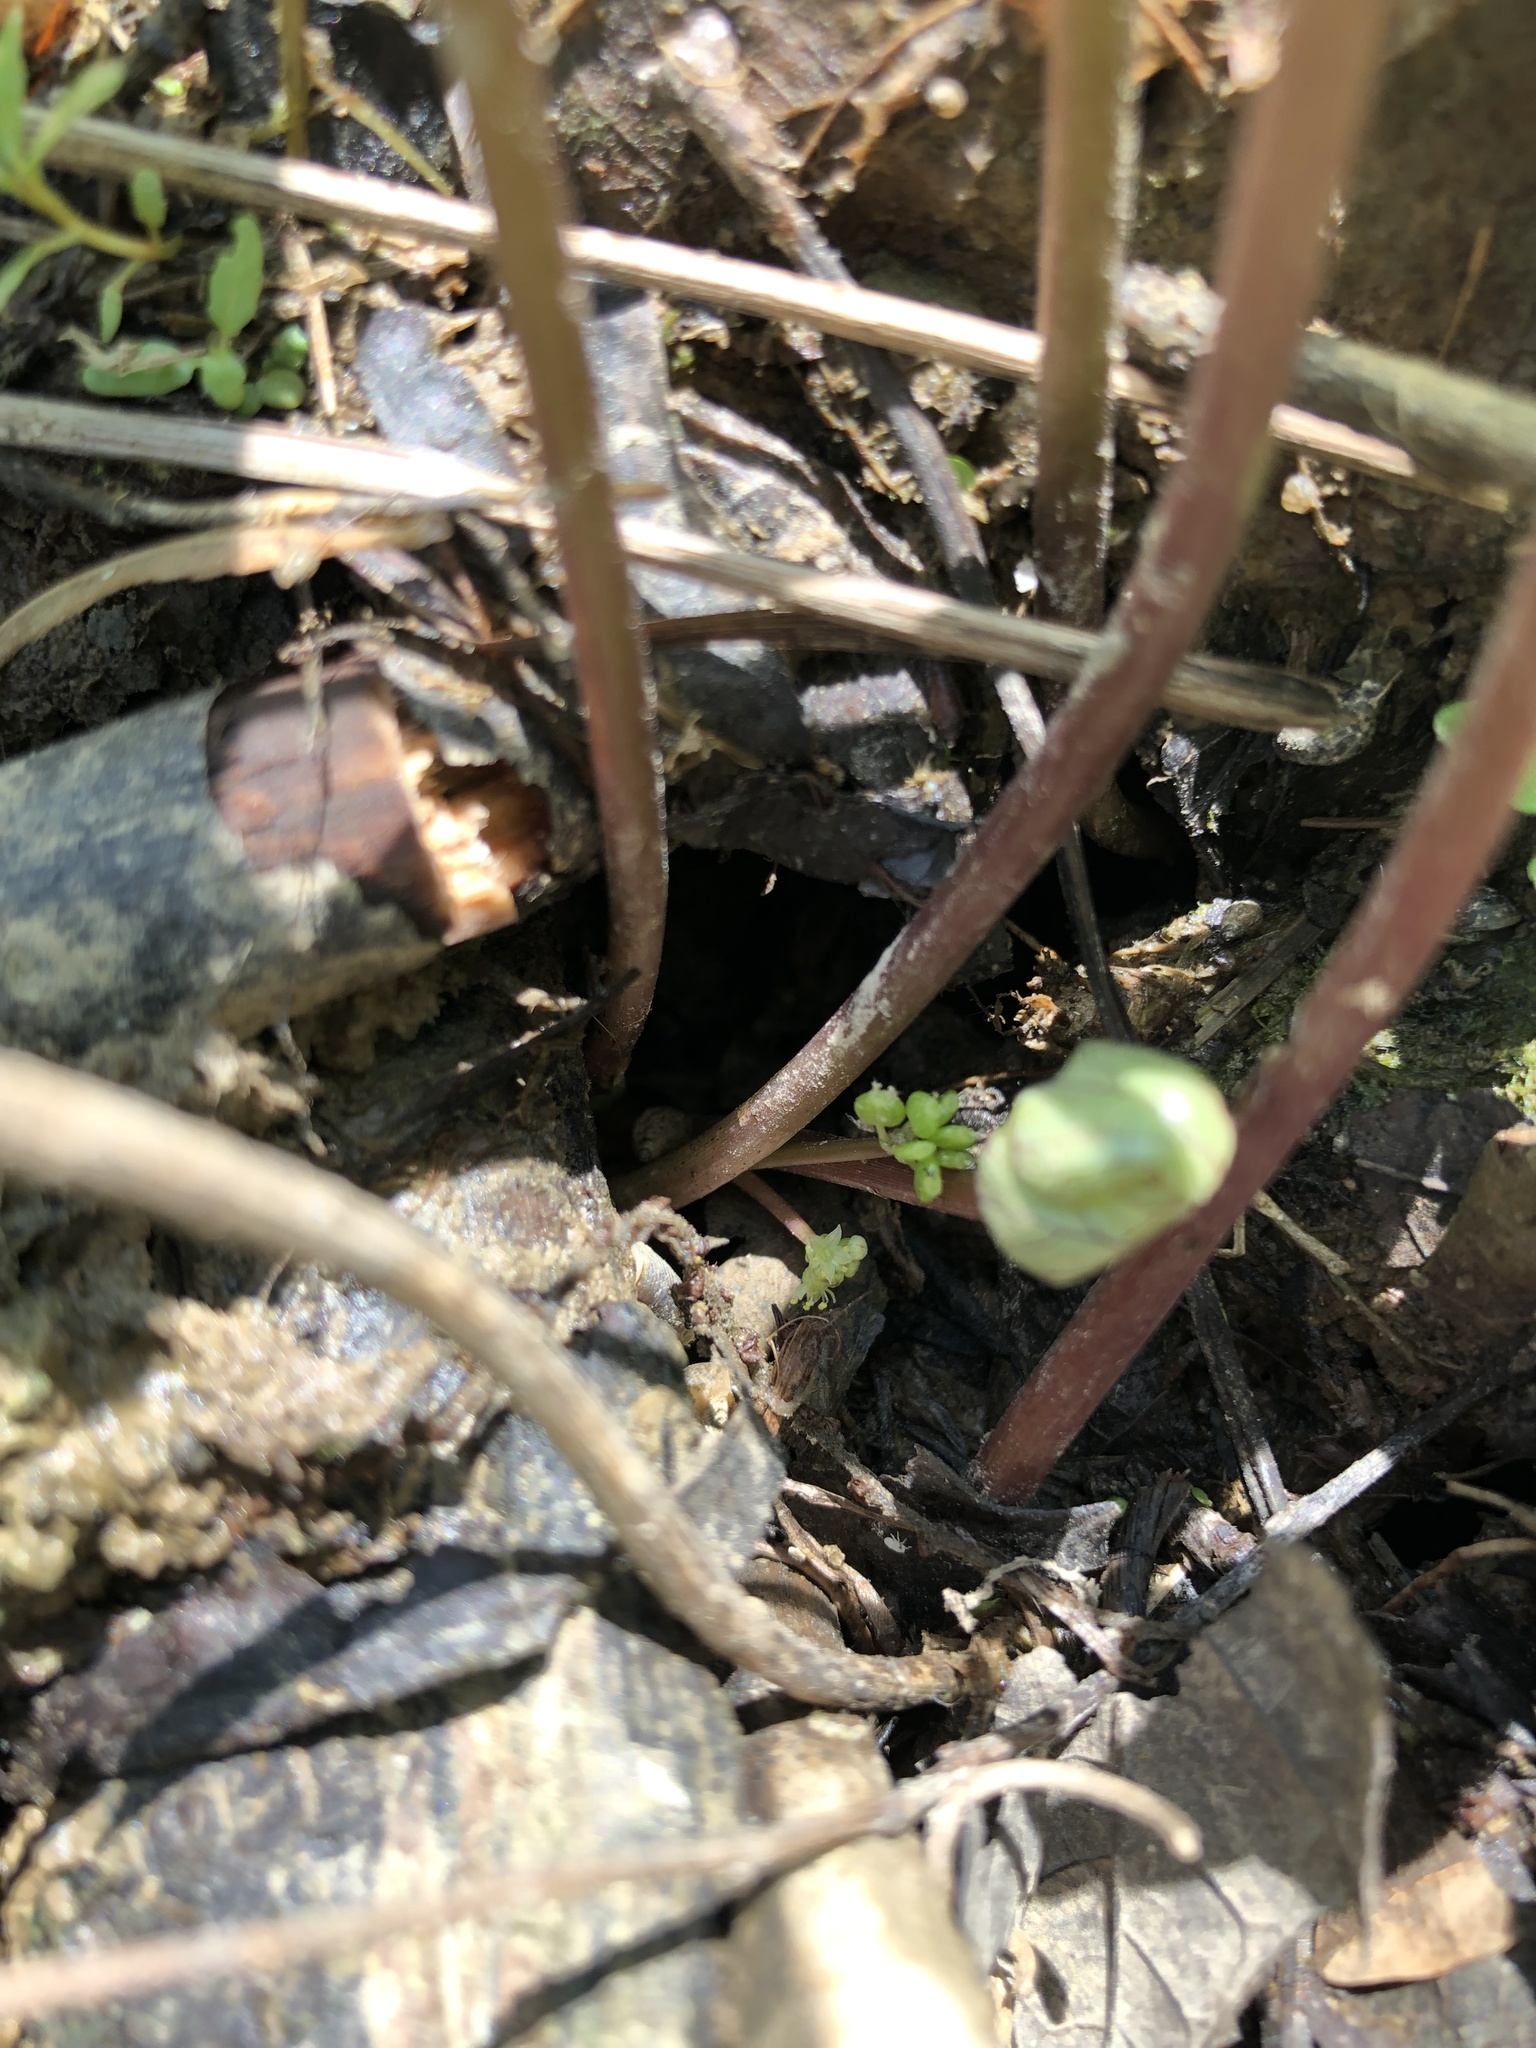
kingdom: Plantae
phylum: Tracheophyta
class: Magnoliopsida
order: Apiales
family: Araliaceae
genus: Hydrocotyle
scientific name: Hydrocotyle ranunculoides
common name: Floating pennywort
